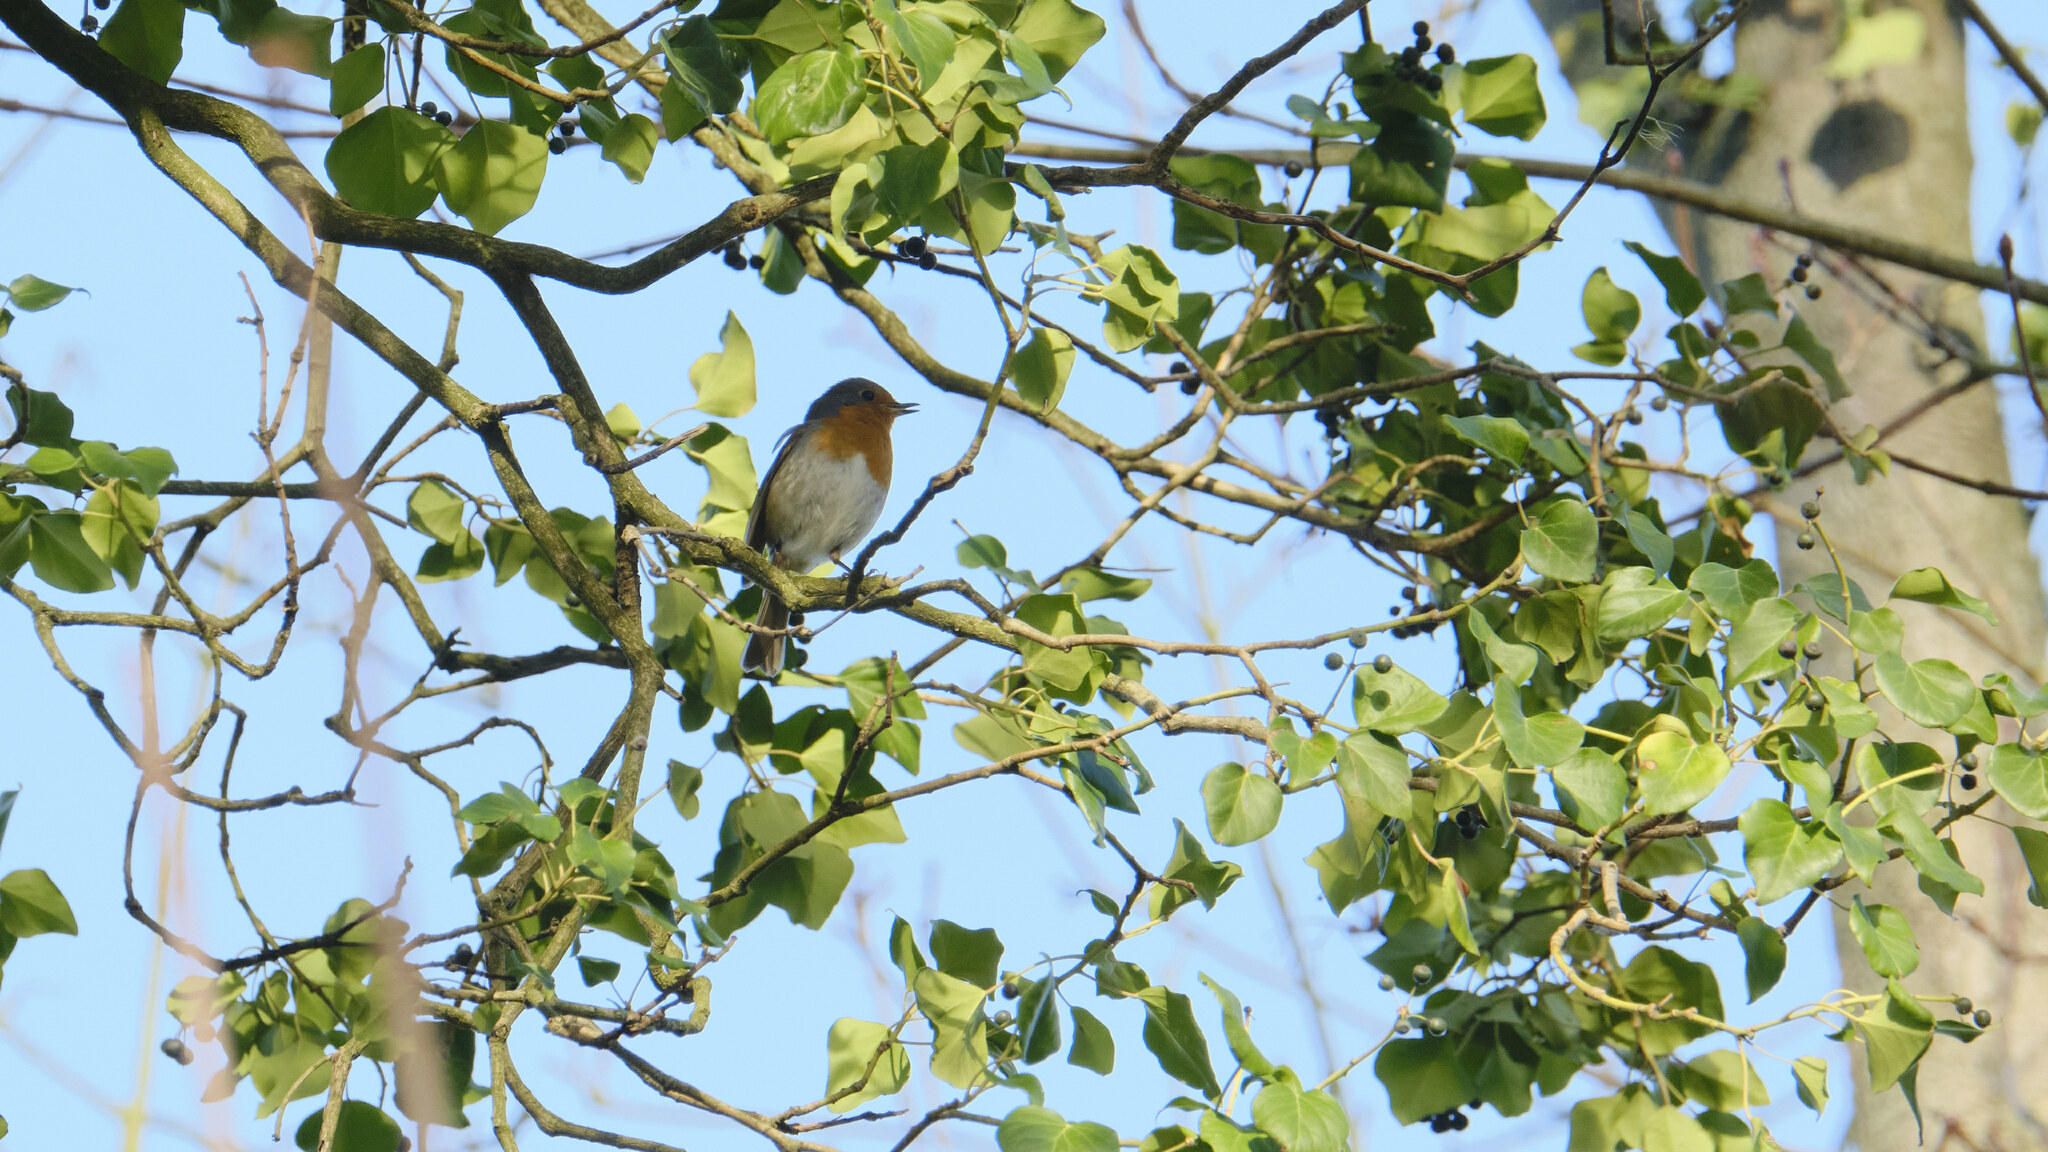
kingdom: Animalia
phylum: Chordata
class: Aves
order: Passeriformes
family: Muscicapidae
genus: Erithacus
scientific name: Erithacus rubecula
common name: European robin
